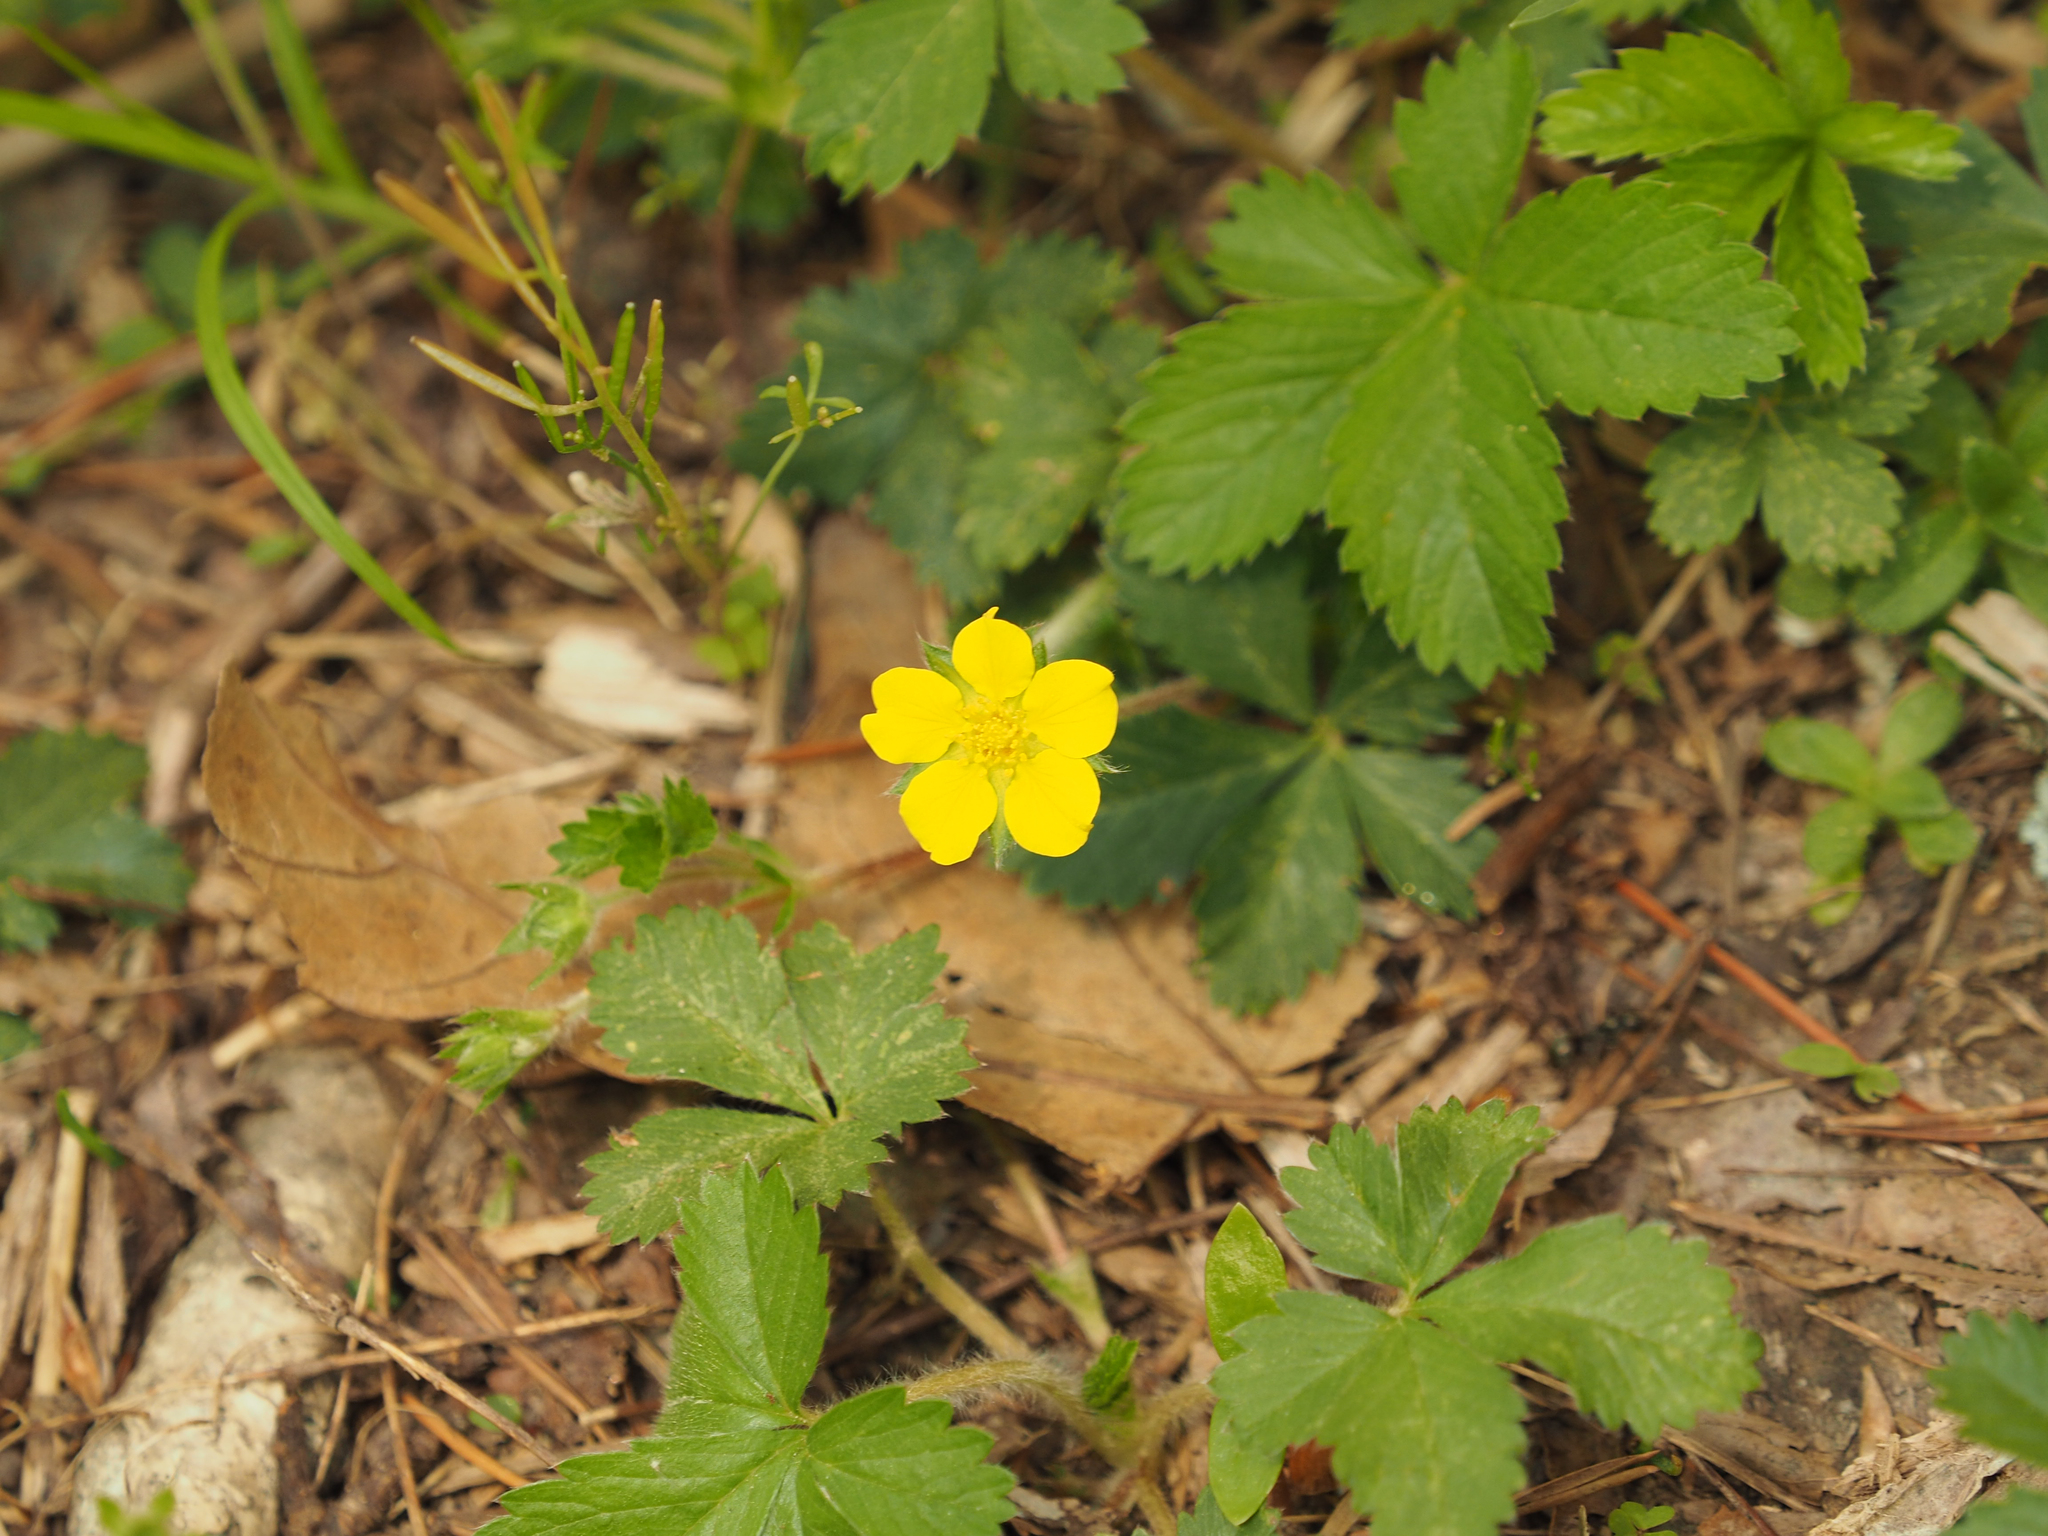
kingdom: Plantae
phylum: Tracheophyta
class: Magnoliopsida
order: Rosales
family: Rosaceae
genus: Potentilla
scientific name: Potentilla canadensis
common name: Canada cinquefoil
